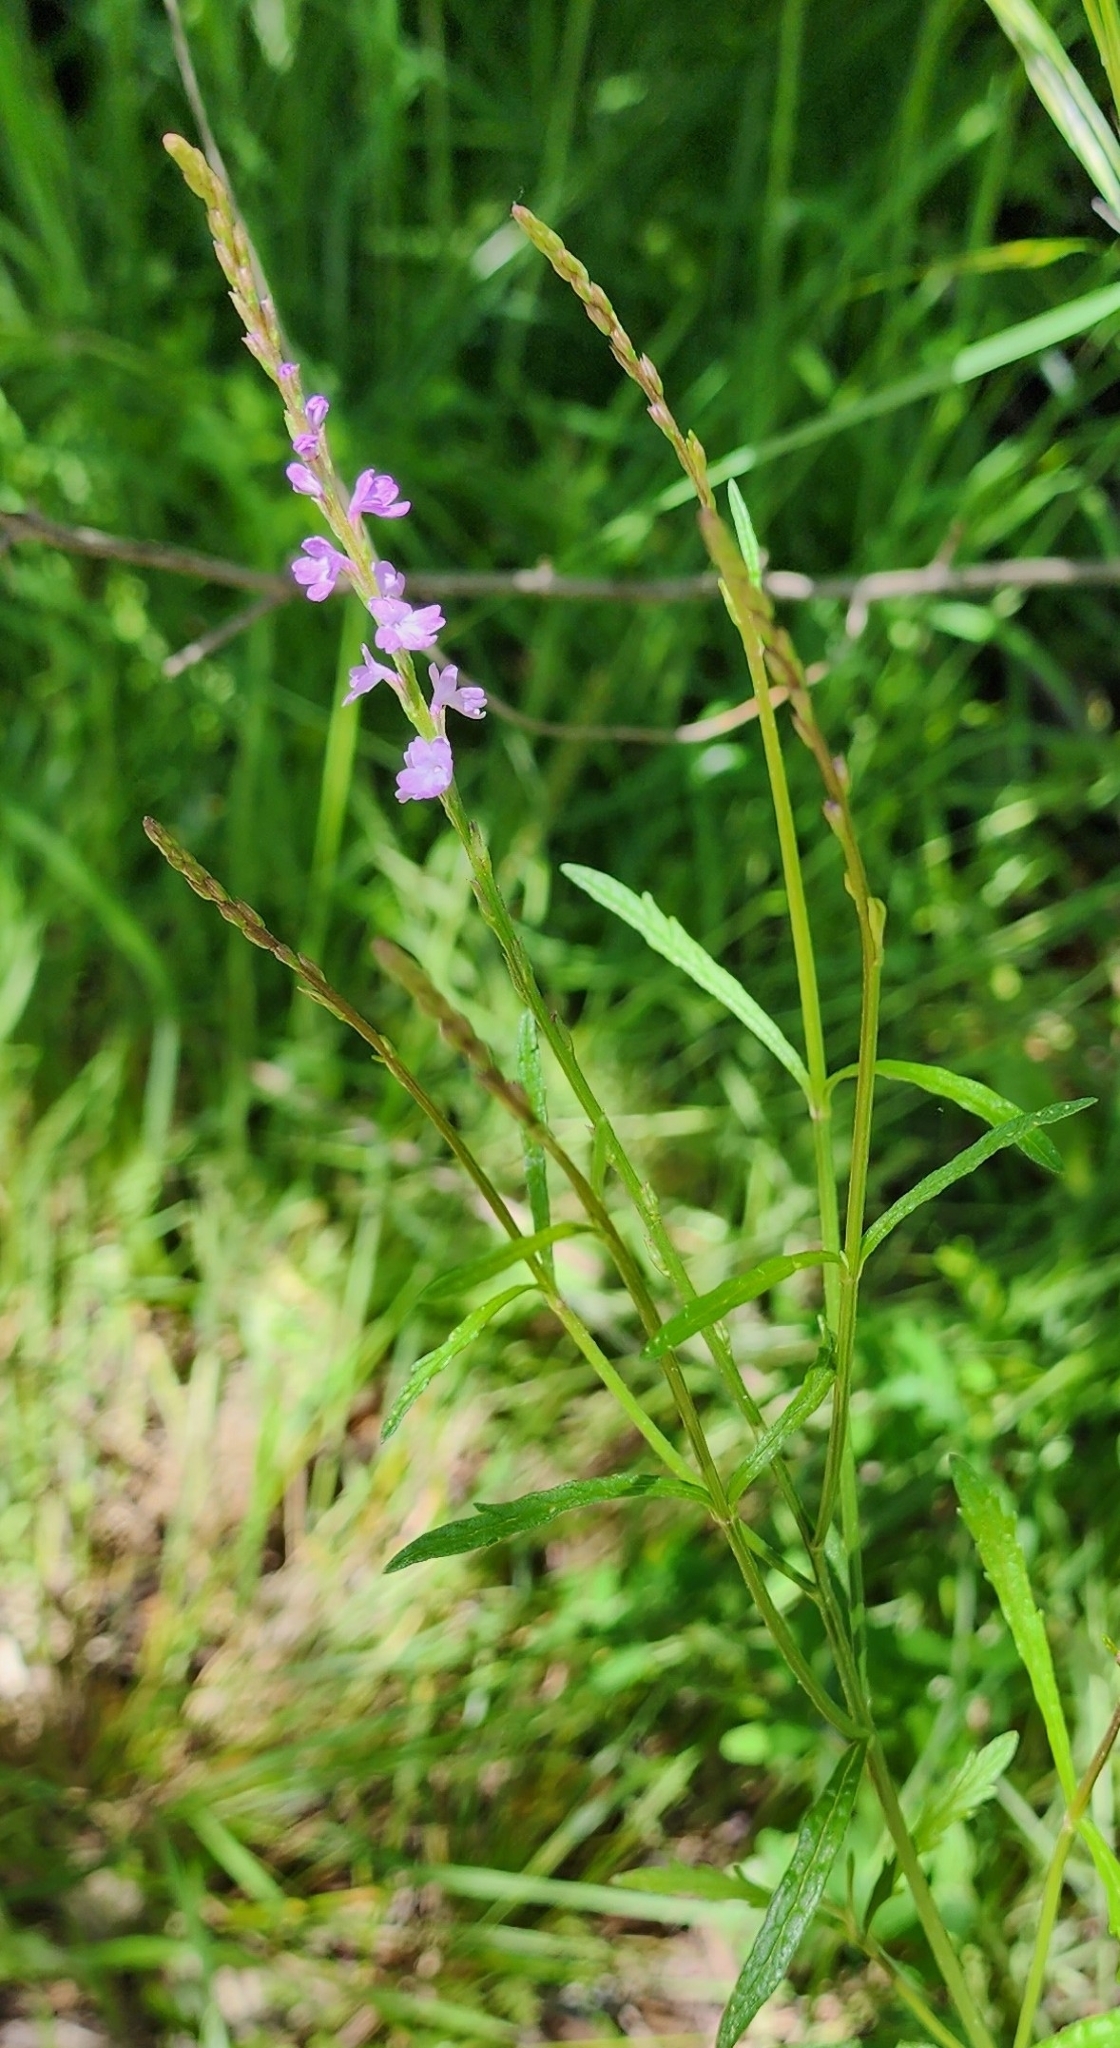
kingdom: Plantae
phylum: Tracheophyta
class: Magnoliopsida
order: Lamiales
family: Verbenaceae
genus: Verbena
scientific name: Verbena halei
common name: Texas vervain
